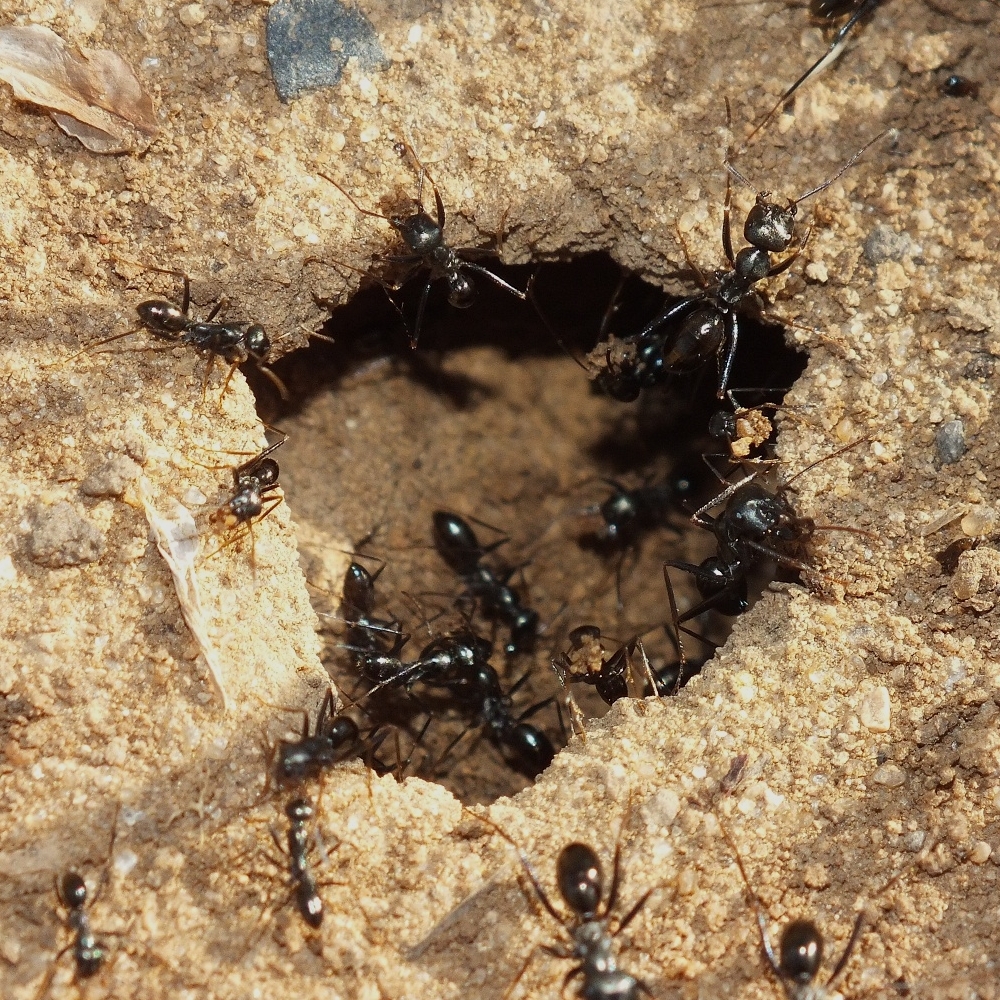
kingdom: Animalia
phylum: Arthropoda
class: Insecta
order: Hymenoptera
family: Formicidae
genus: Cataglyphis
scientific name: Cataglyphis aenescens
